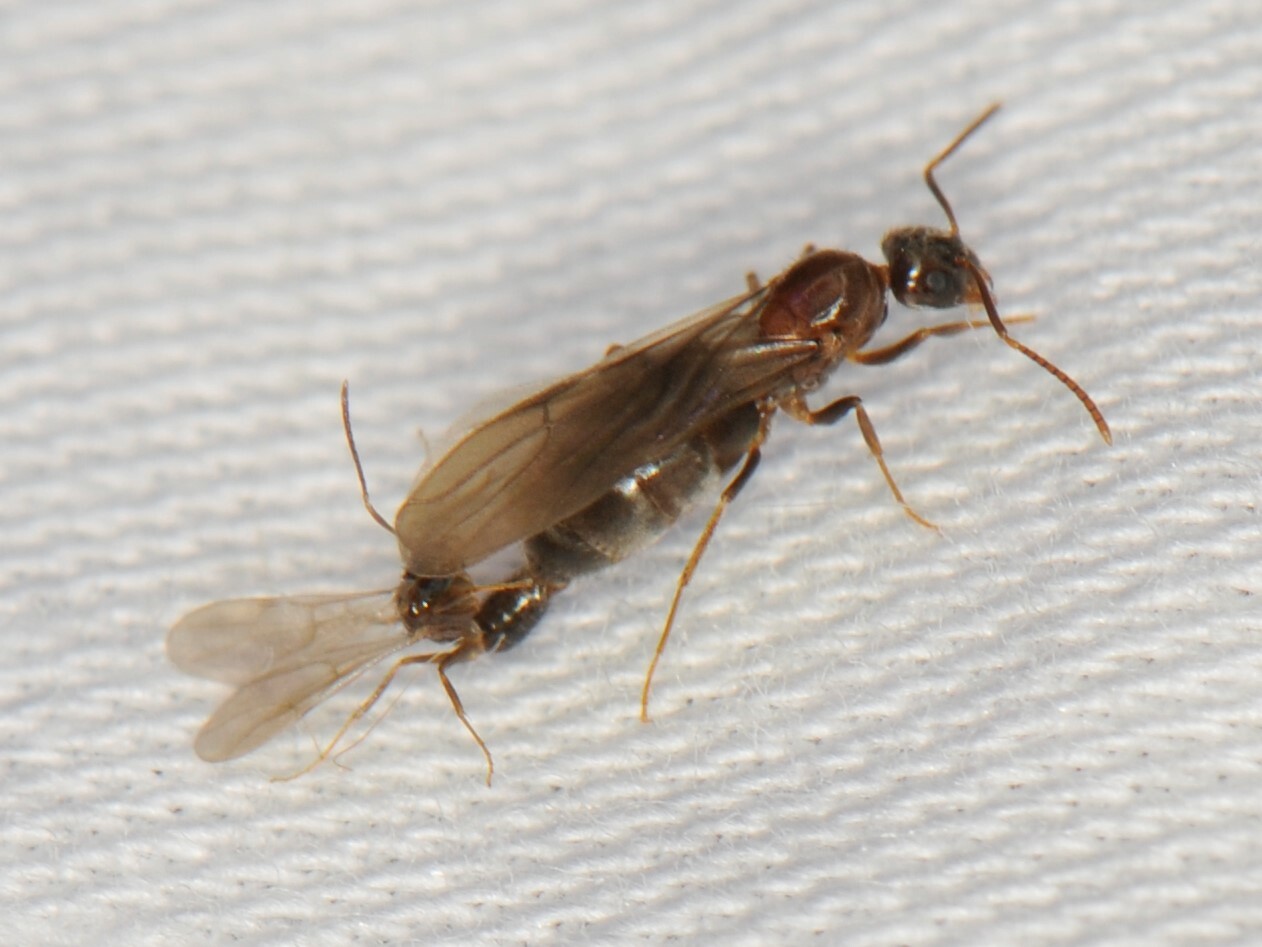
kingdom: Animalia
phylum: Arthropoda
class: Insecta
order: Hymenoptera
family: Formicidae
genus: Nylanderia
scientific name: Nylanderia
